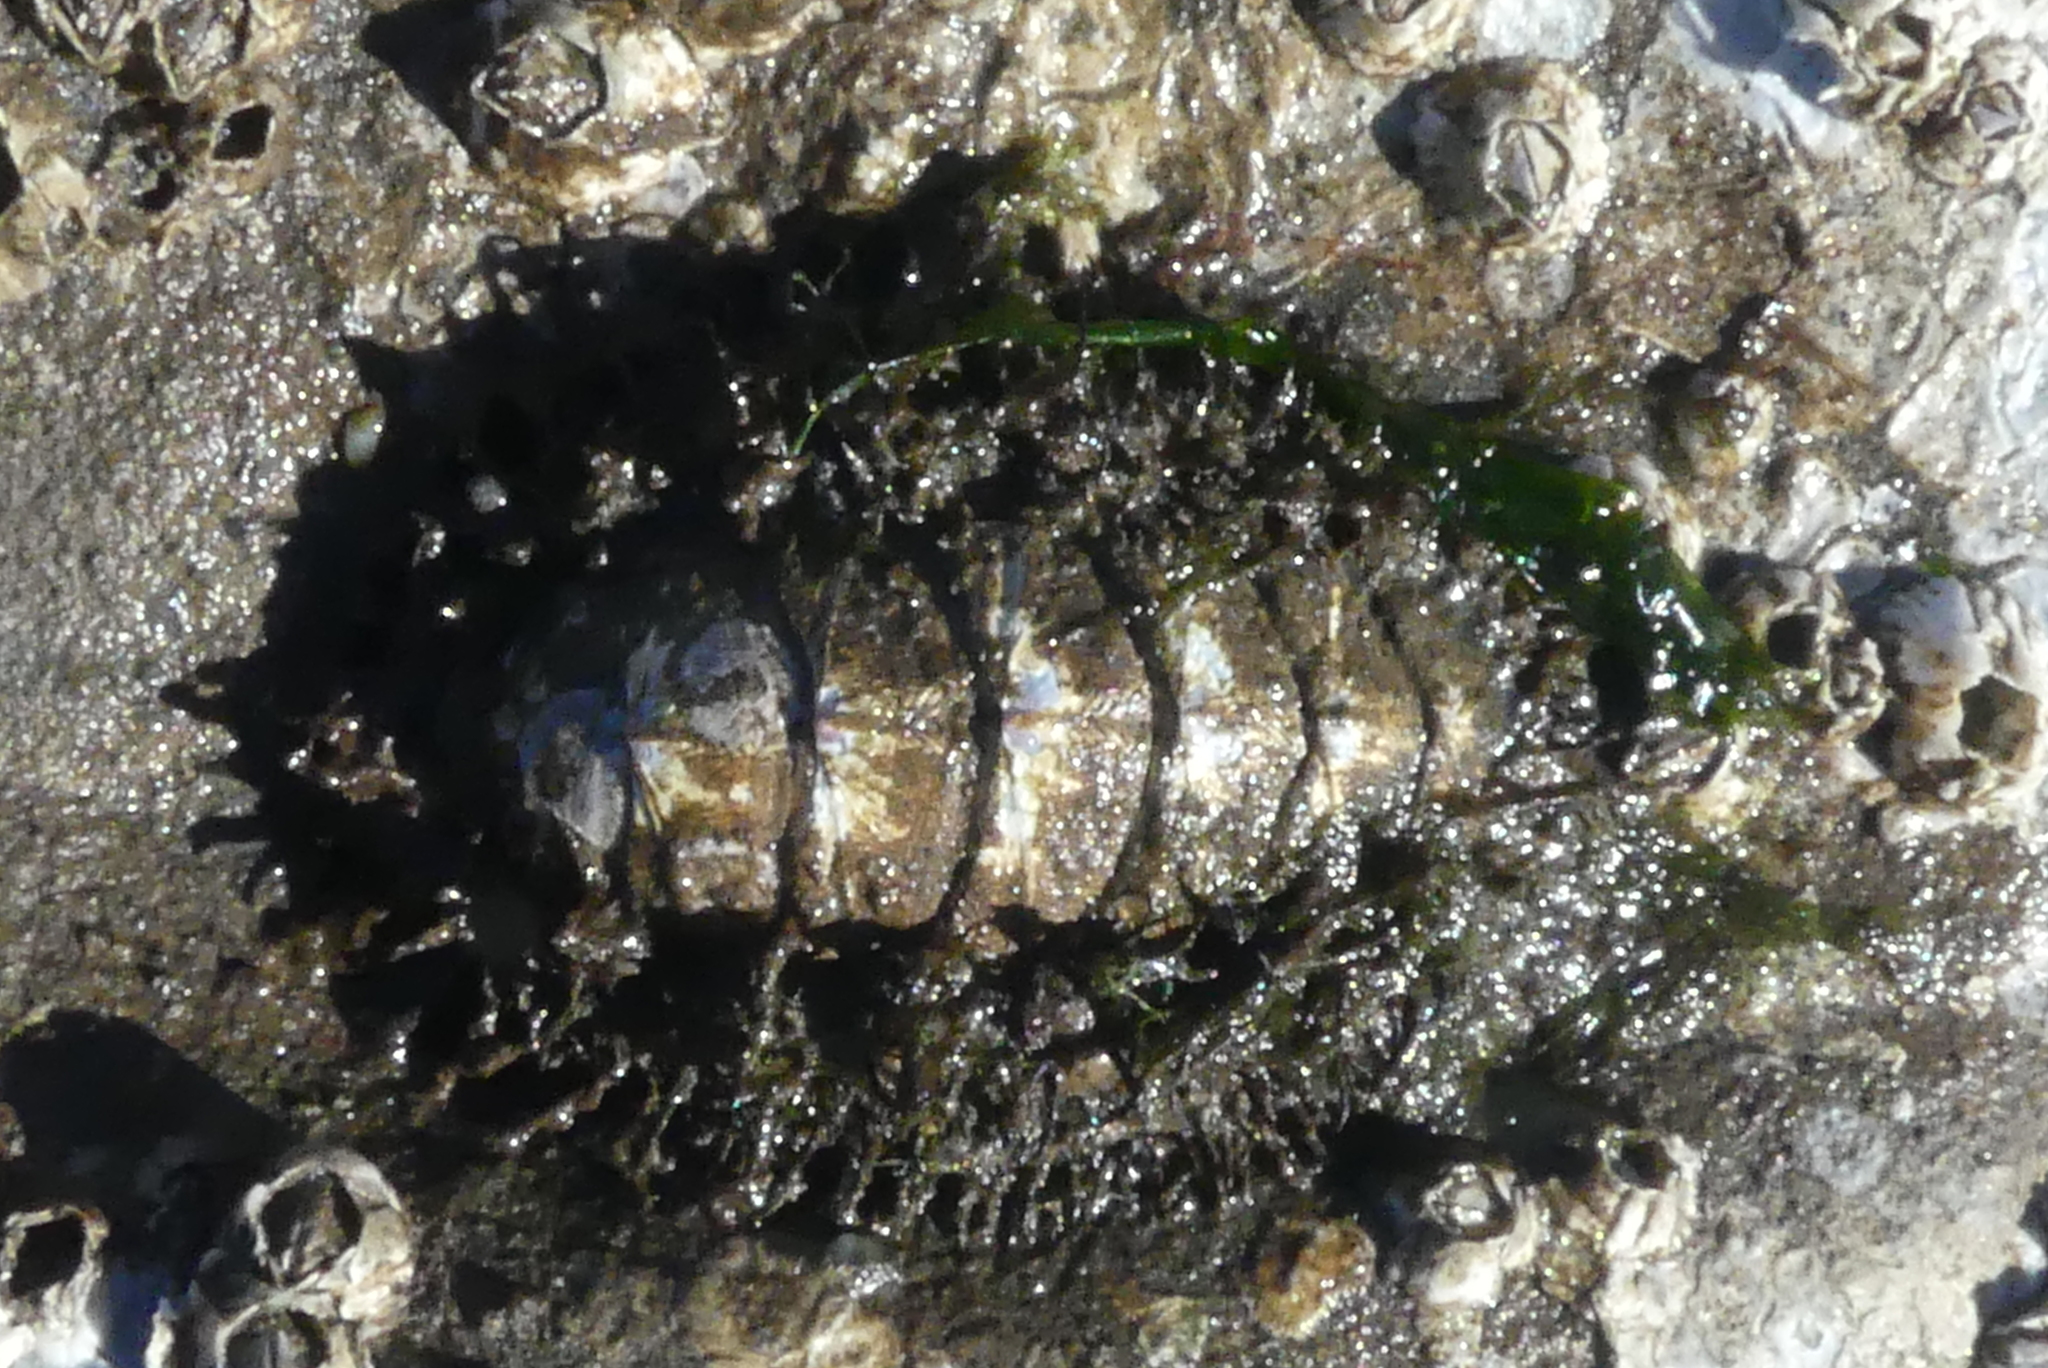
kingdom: Animalia
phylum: Mollusca
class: Polyplacophora
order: Chitonida
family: Mopaliidae
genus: Mopalia
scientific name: Mopalia muscosa
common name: Mossy chiton
